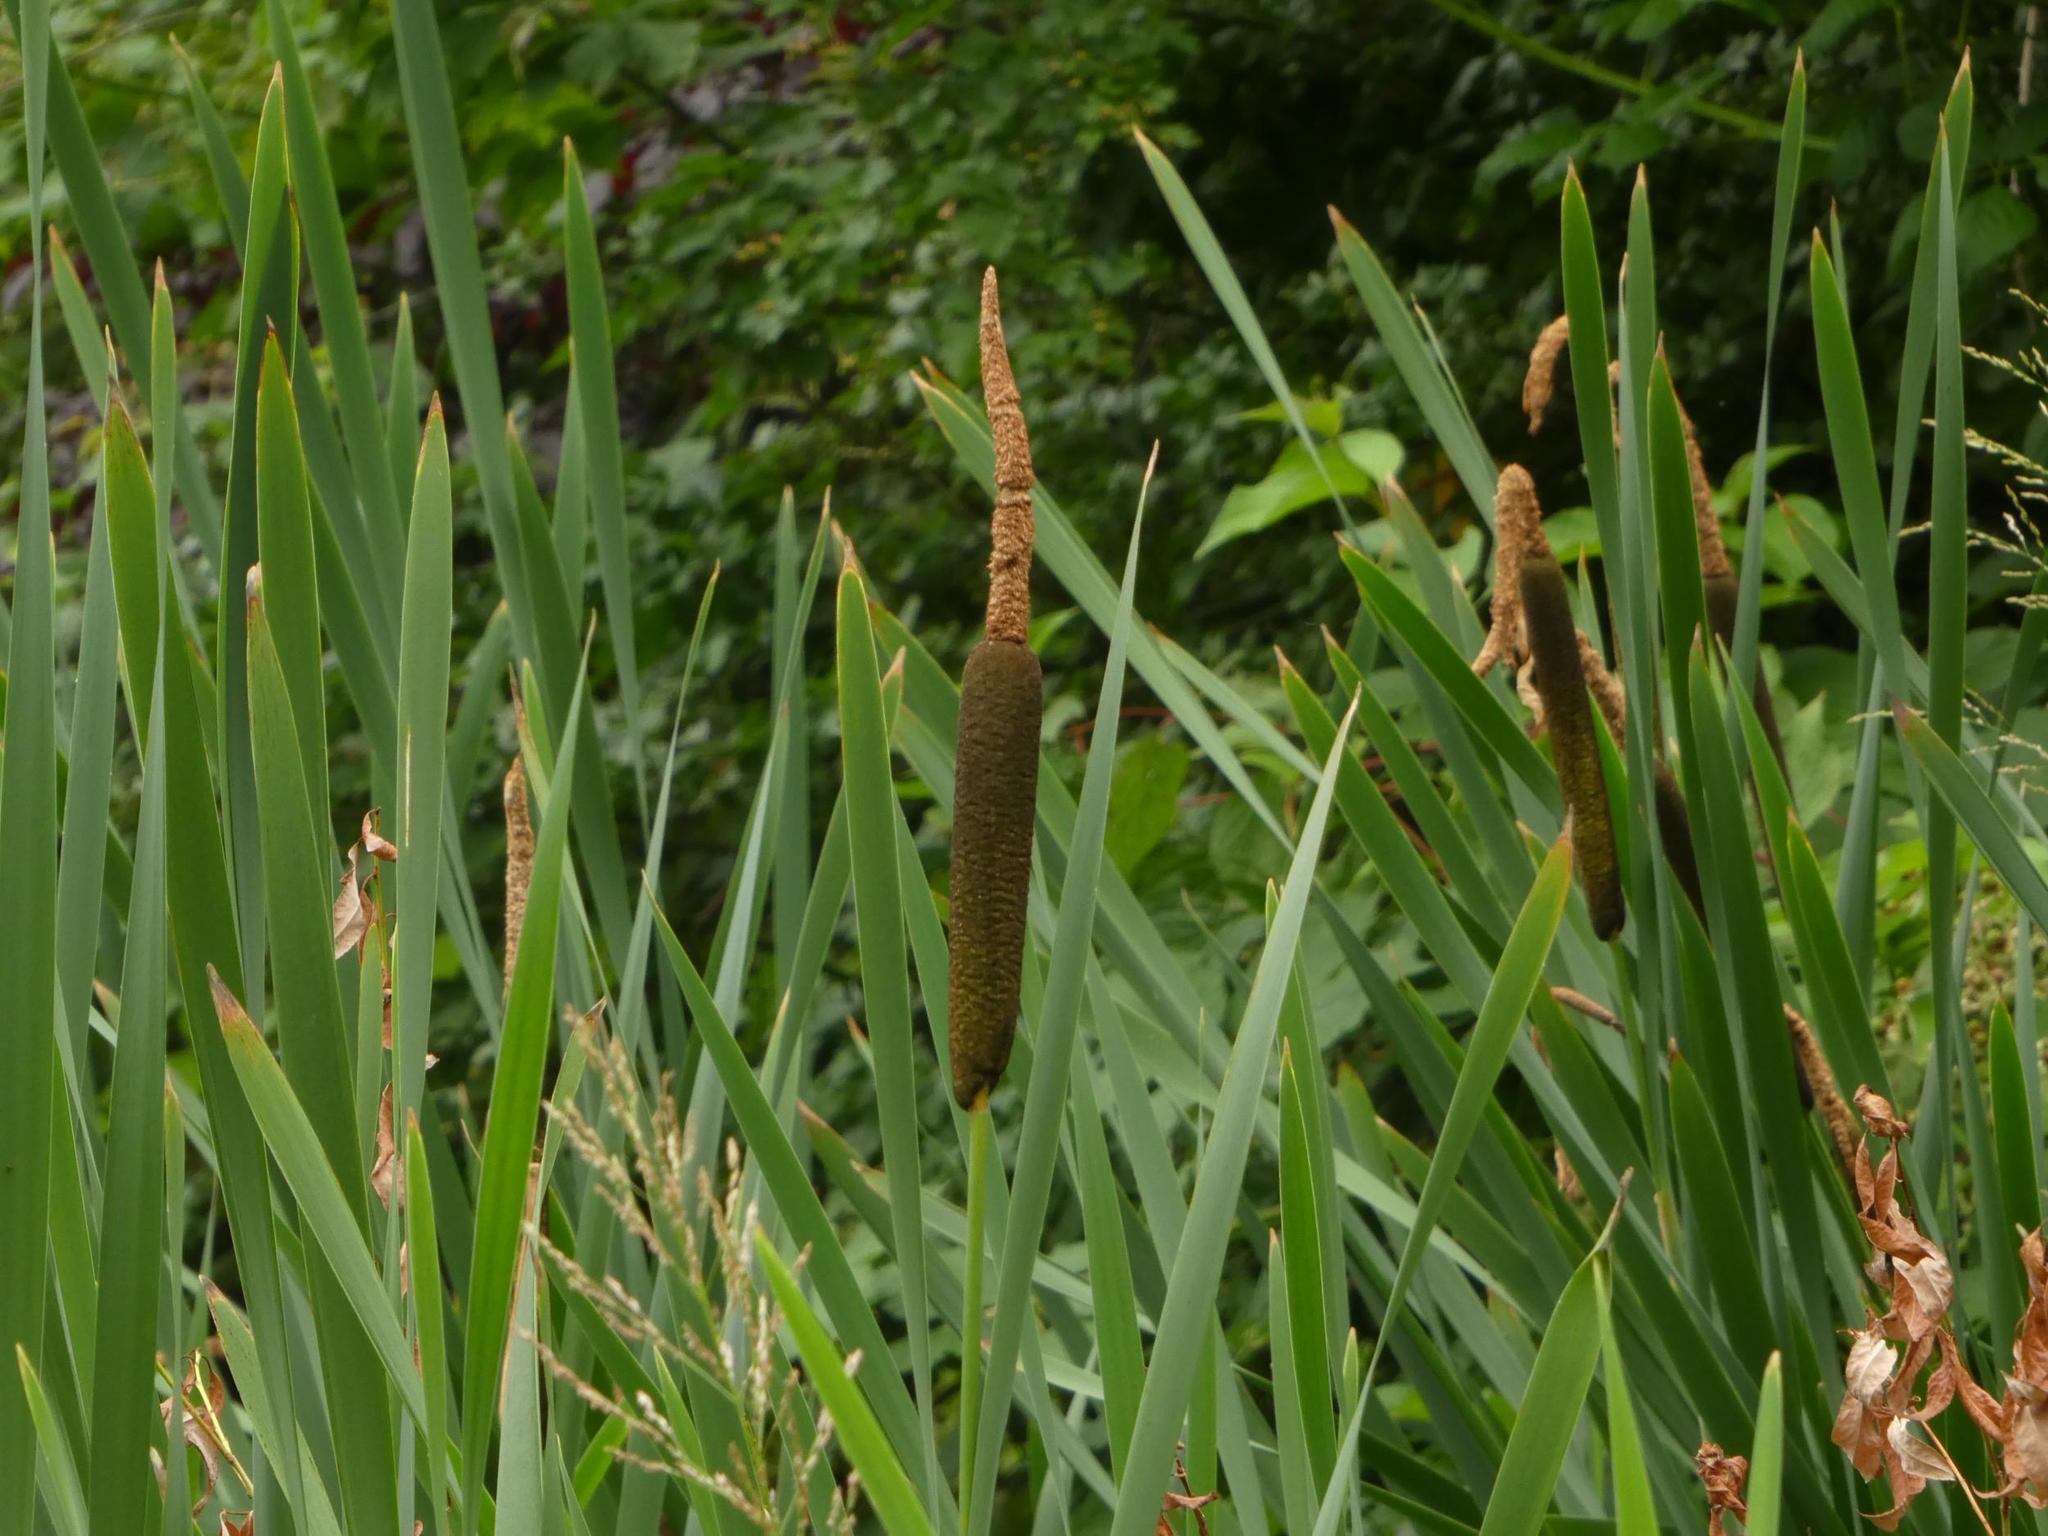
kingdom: Plantae
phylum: Tracheophyta
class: Liliopsida
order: Poales
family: Typhaceae
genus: Typha
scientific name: Typha latifolia
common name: Broadleaf cattail
